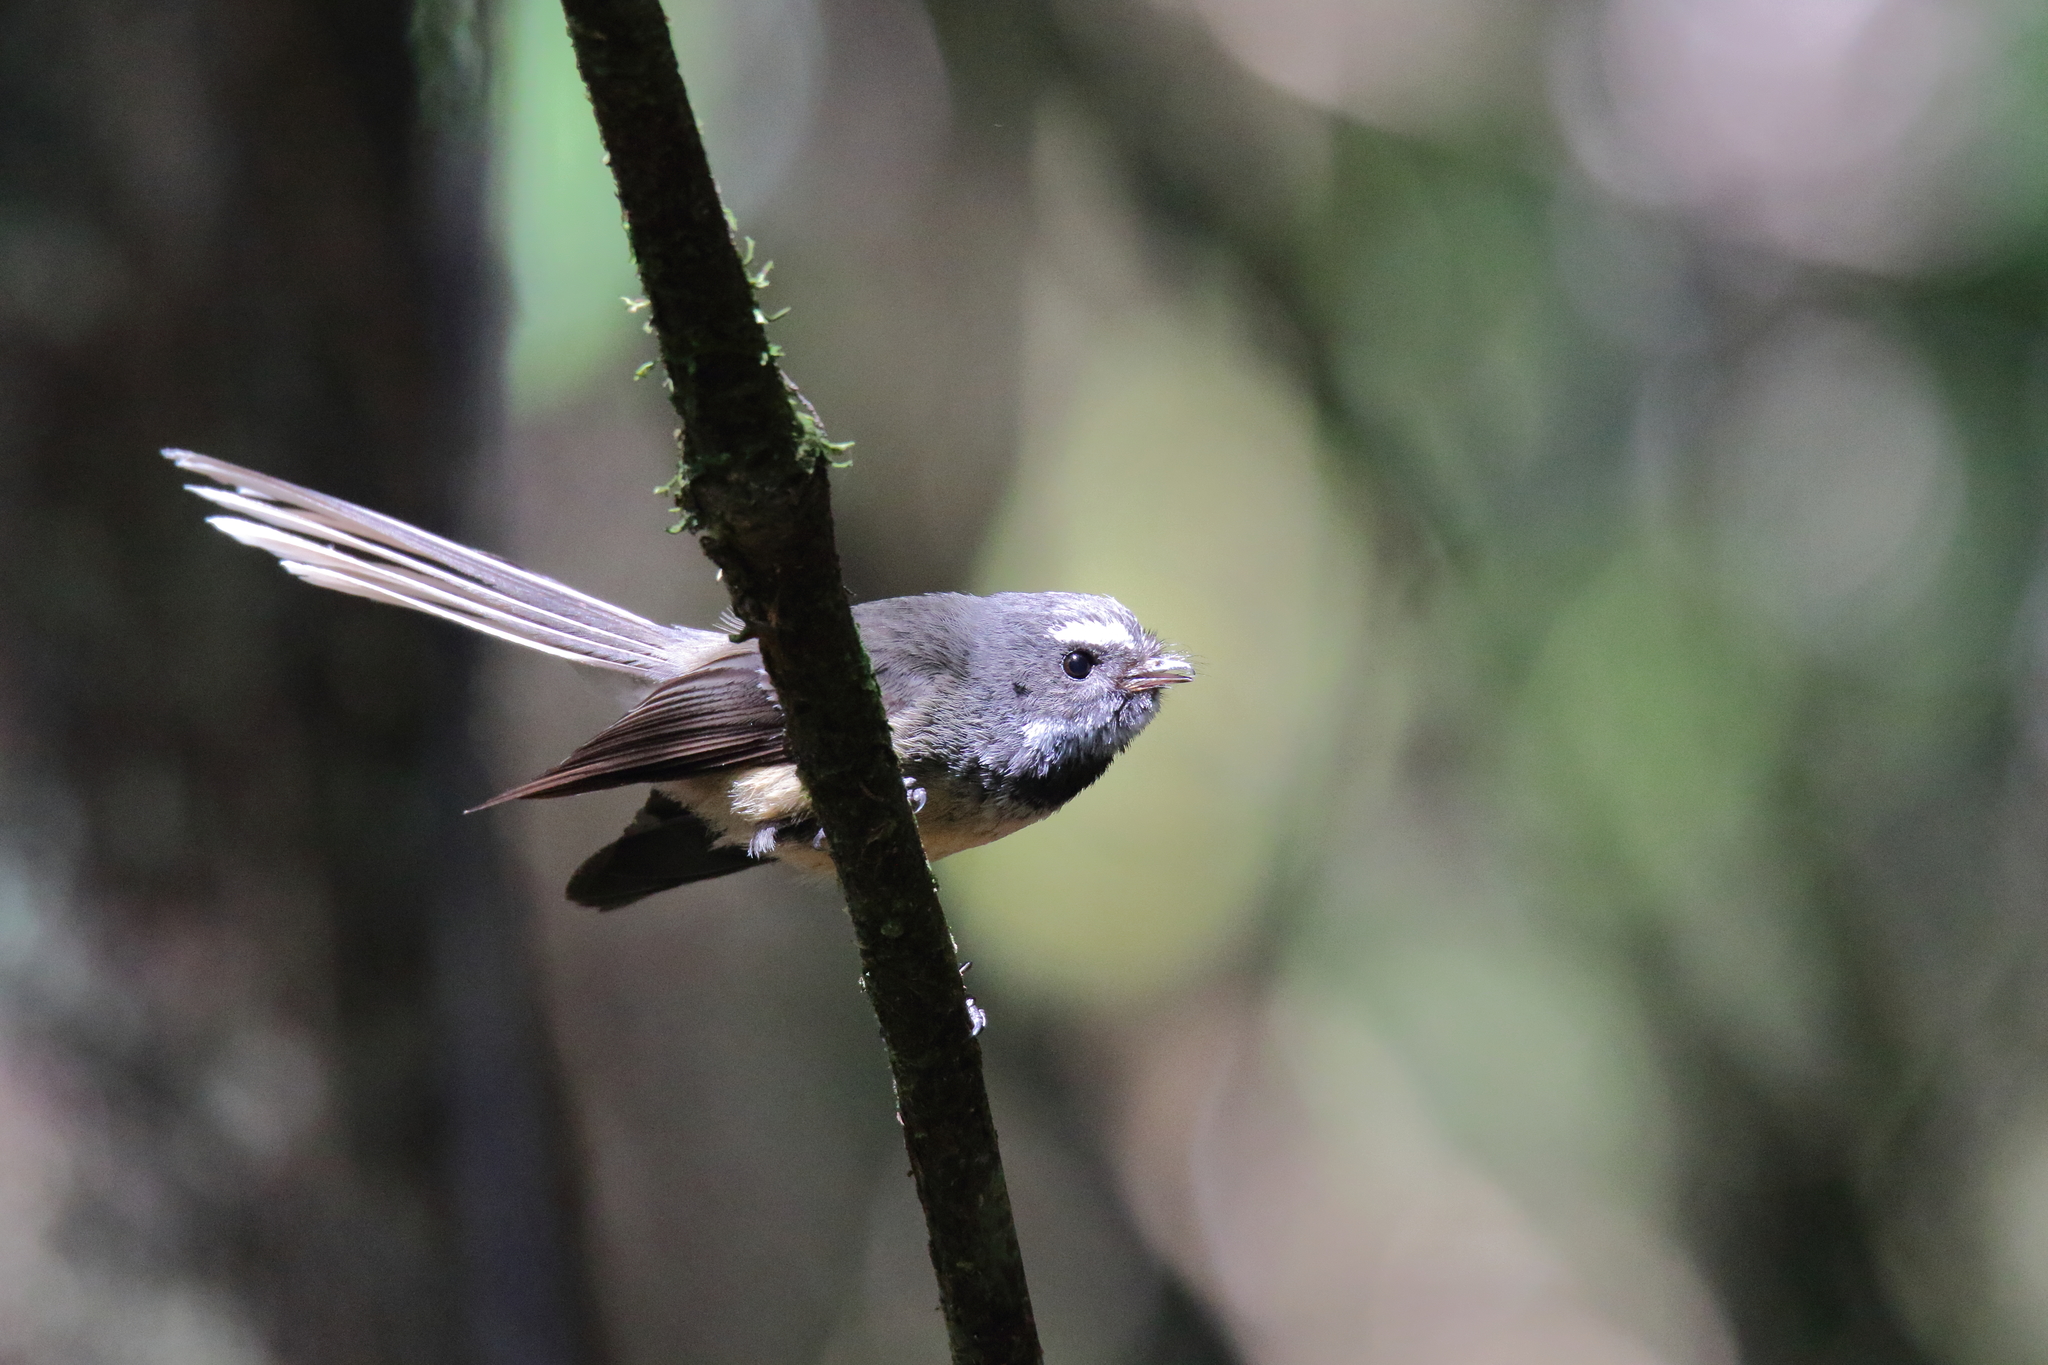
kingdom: Animalia
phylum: Chordata
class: Aves
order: Passeriformes
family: Rhipiduridae
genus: Rhipidura
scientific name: Rhipidura fuliginosa
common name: New zealand fantail
